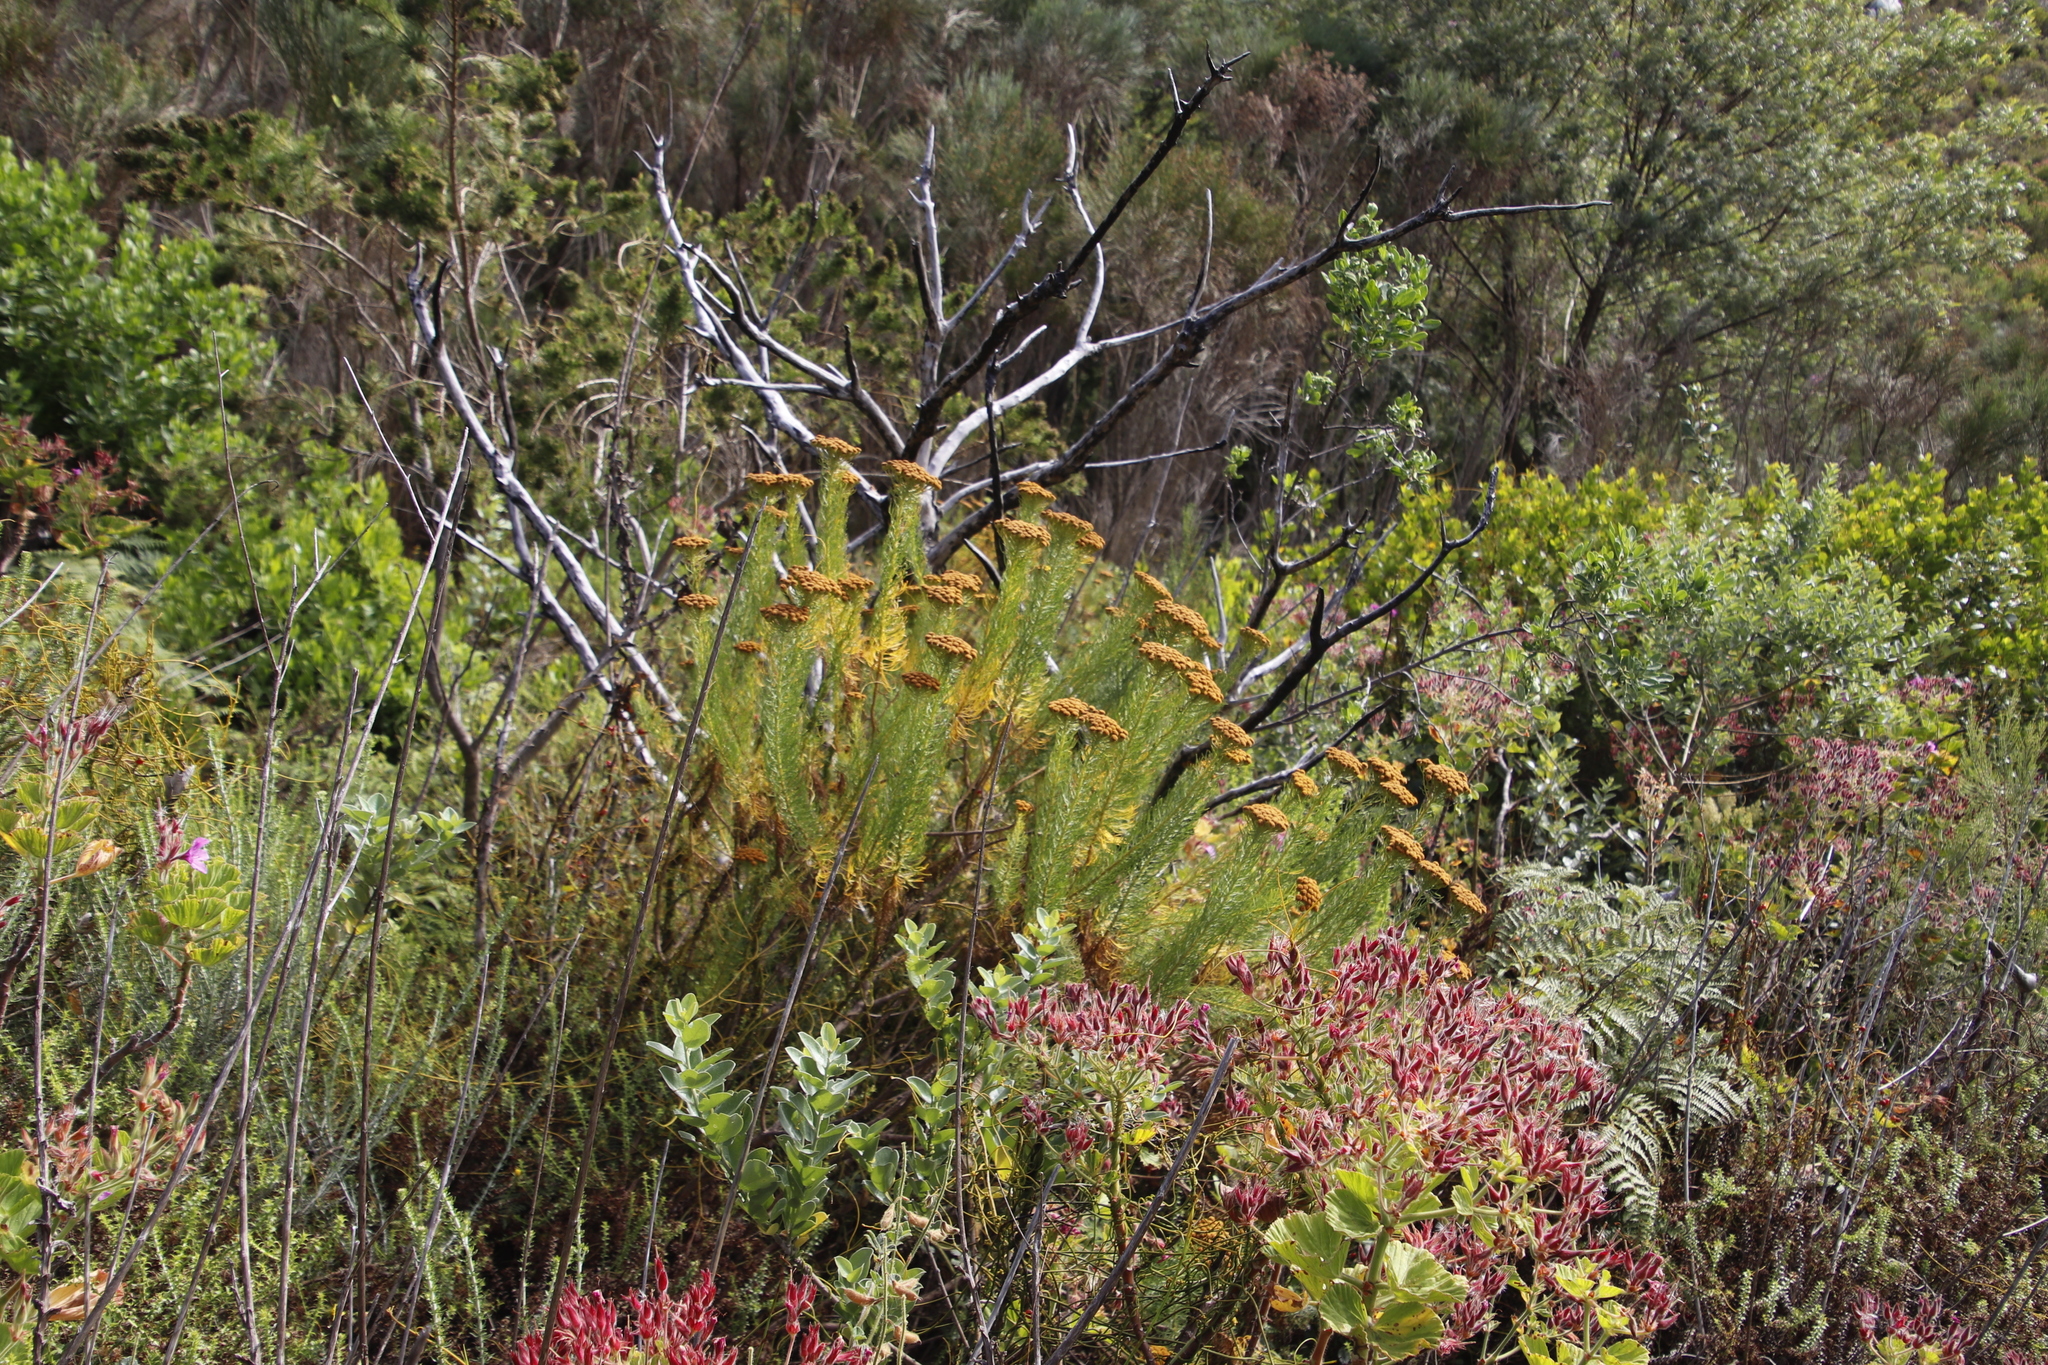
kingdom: Plantae
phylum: Tracheophyta
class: Magnoliopsida
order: Asterales
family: Asteraceae
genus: Athanasia
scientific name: Athanasia crithmifolia
